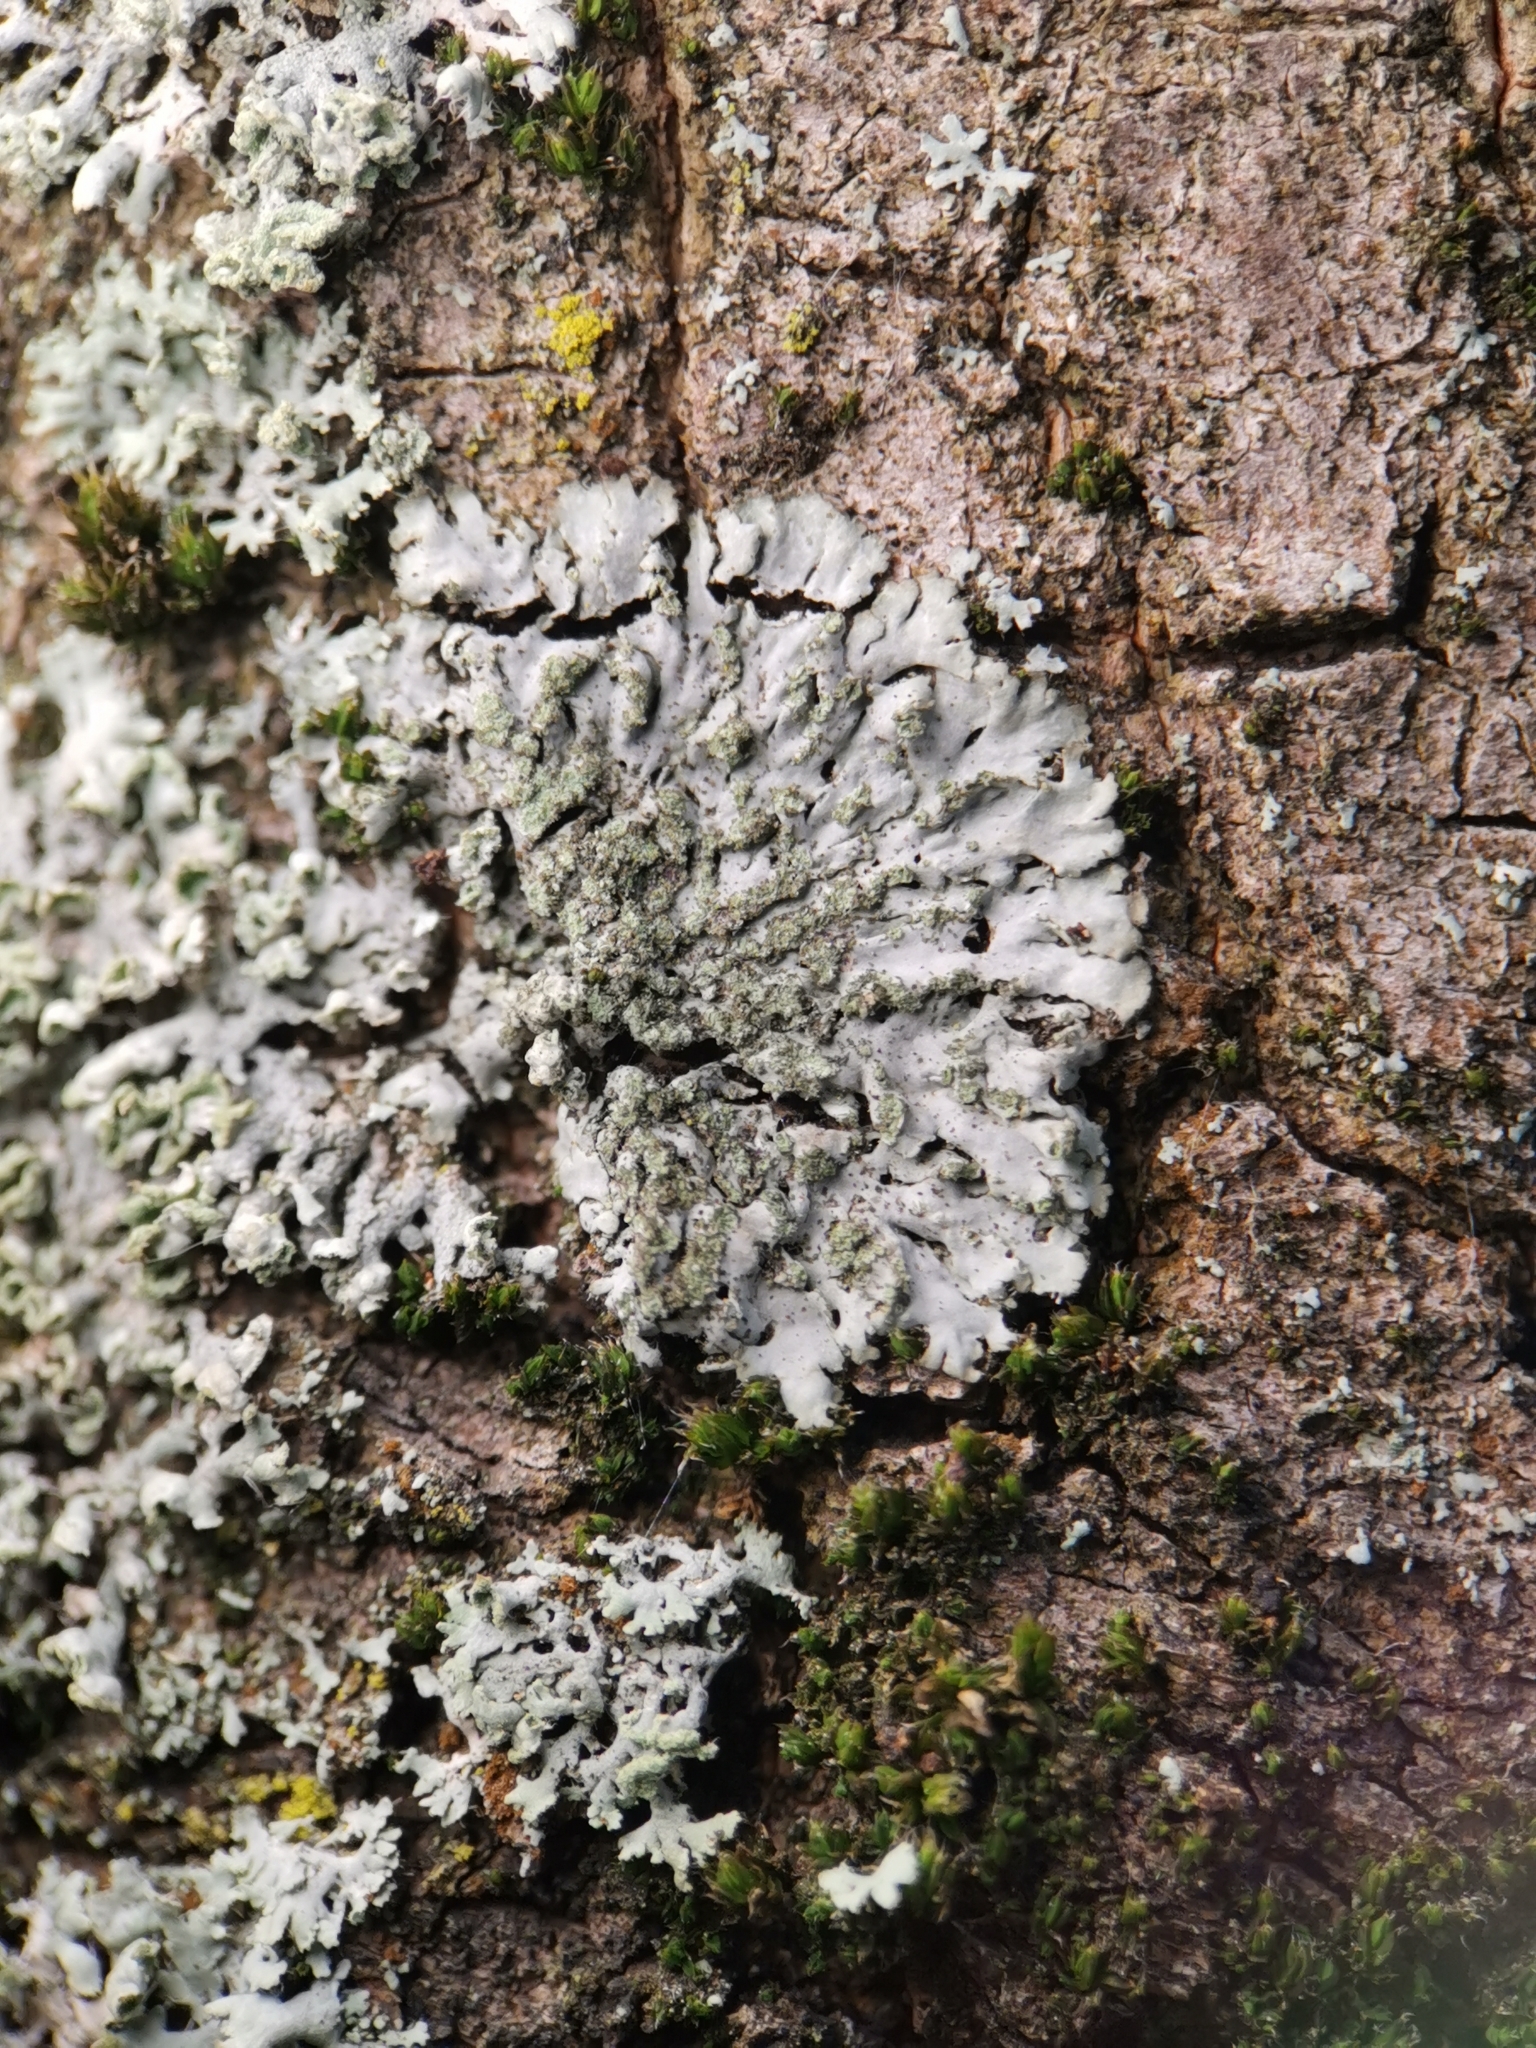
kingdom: Fungi
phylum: Ascomycota
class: Lecanoromycetes
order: Caliciales
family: Physciaceae
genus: Phaeophyscia
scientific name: Phaeophyscia orbicularis
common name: Mealy shadow lichen
